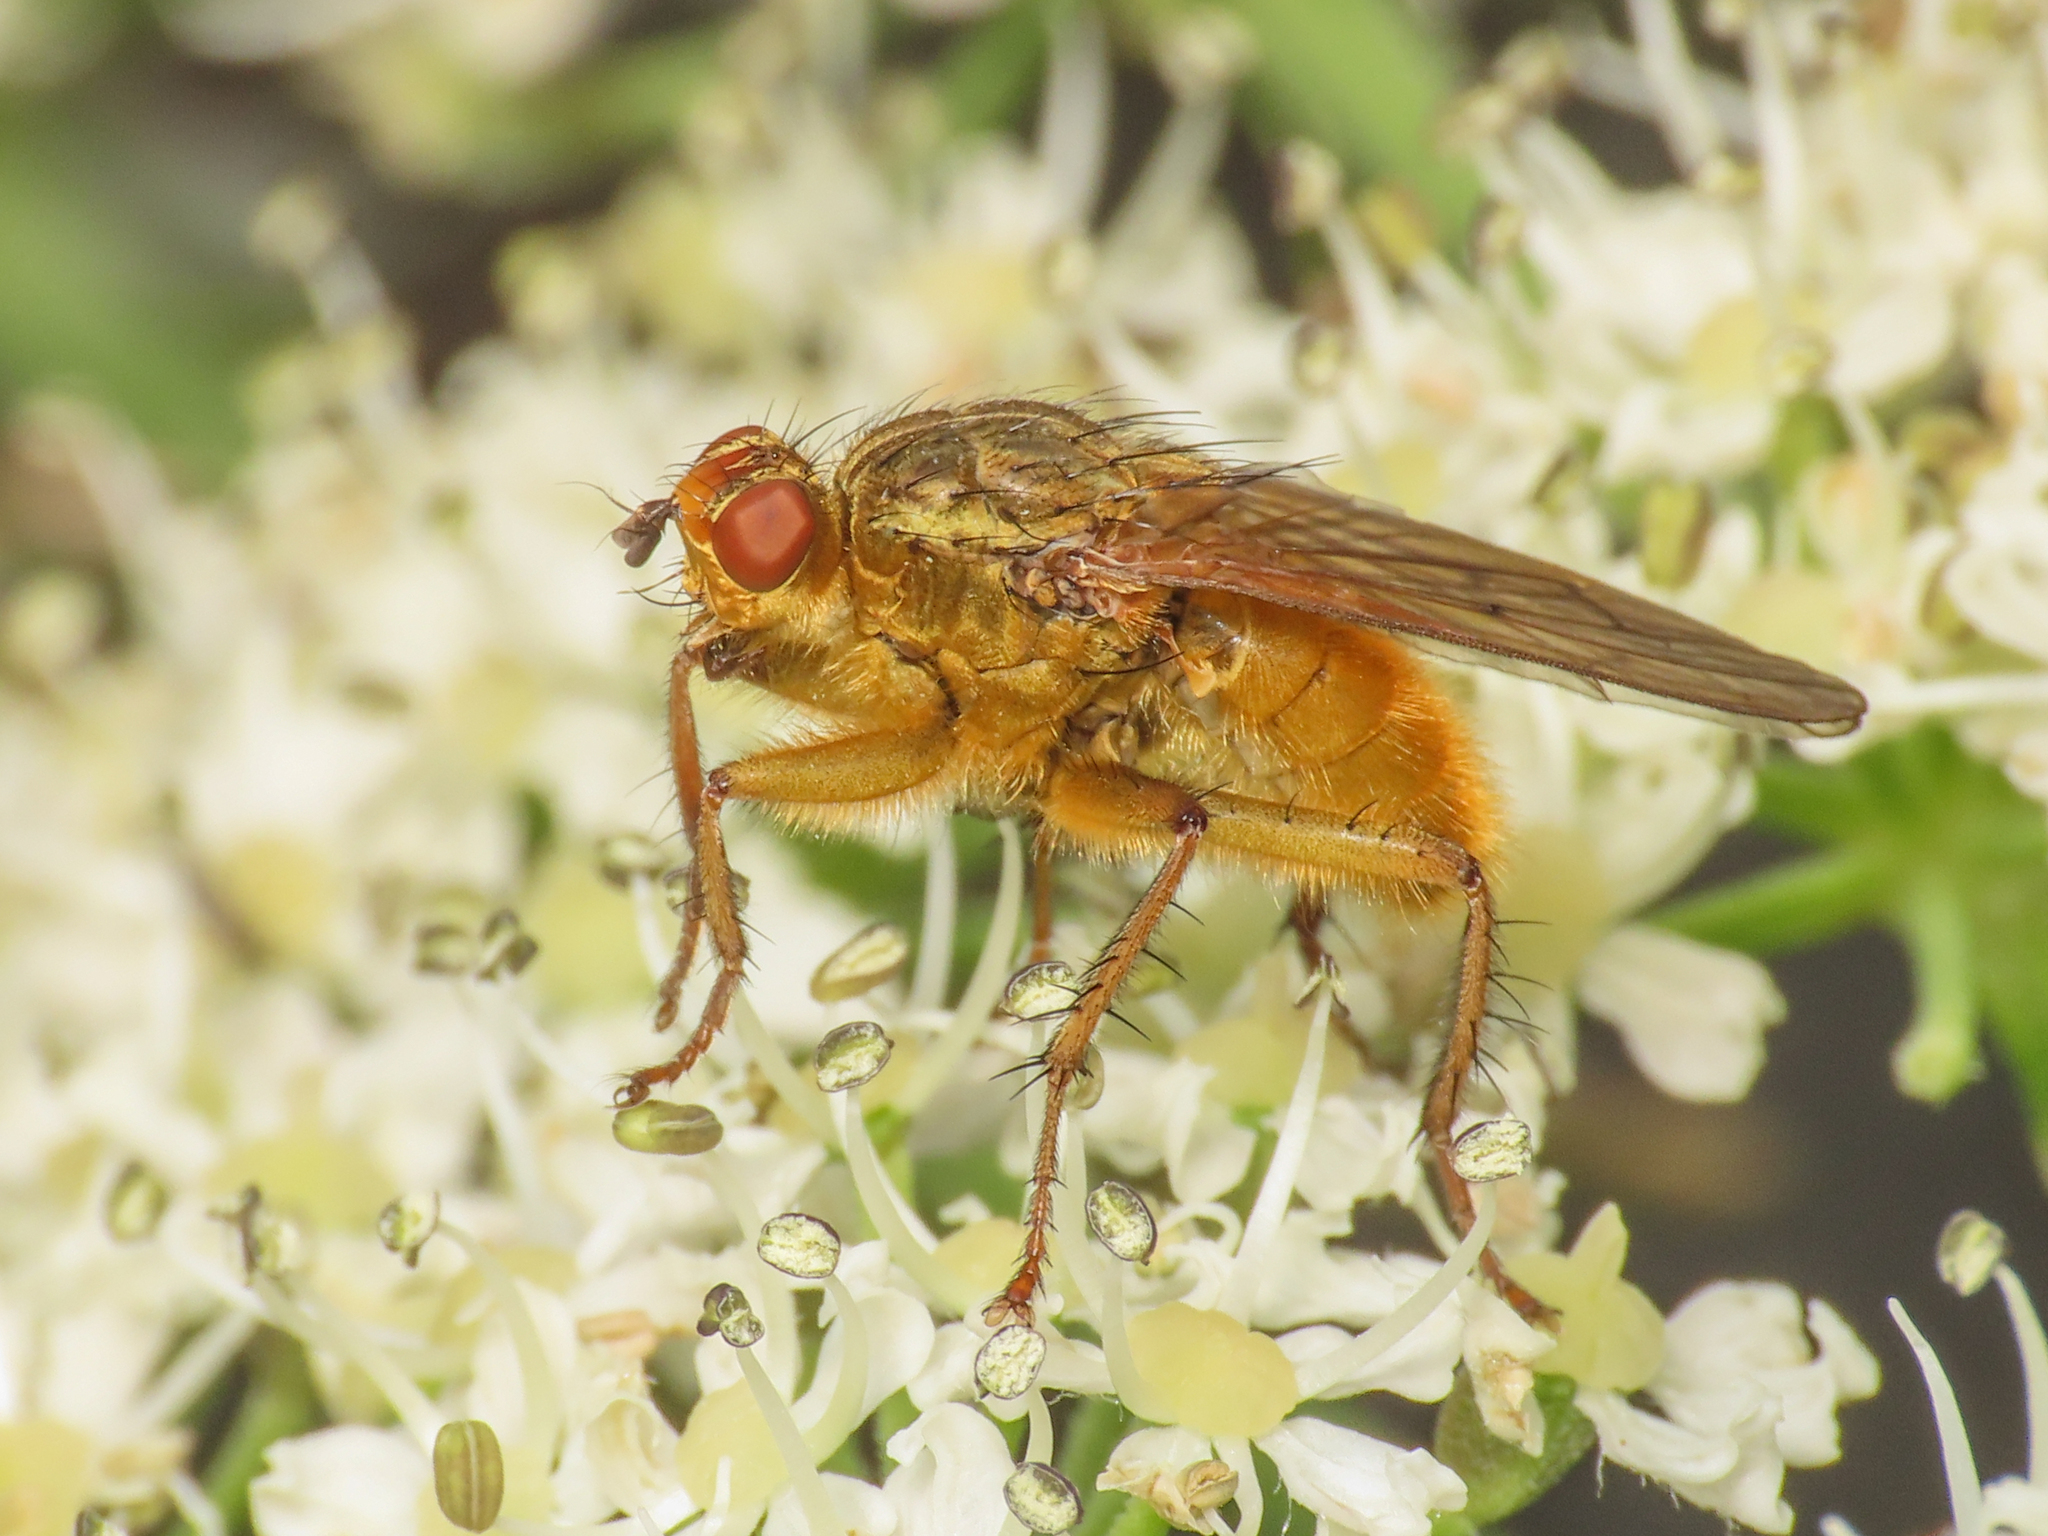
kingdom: Animalia
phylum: Arthropoda
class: Insecta
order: Diptera
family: Scathophagidae
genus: Scathophaga
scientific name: Scathophaga stercoraria
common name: Yellow dung fly
